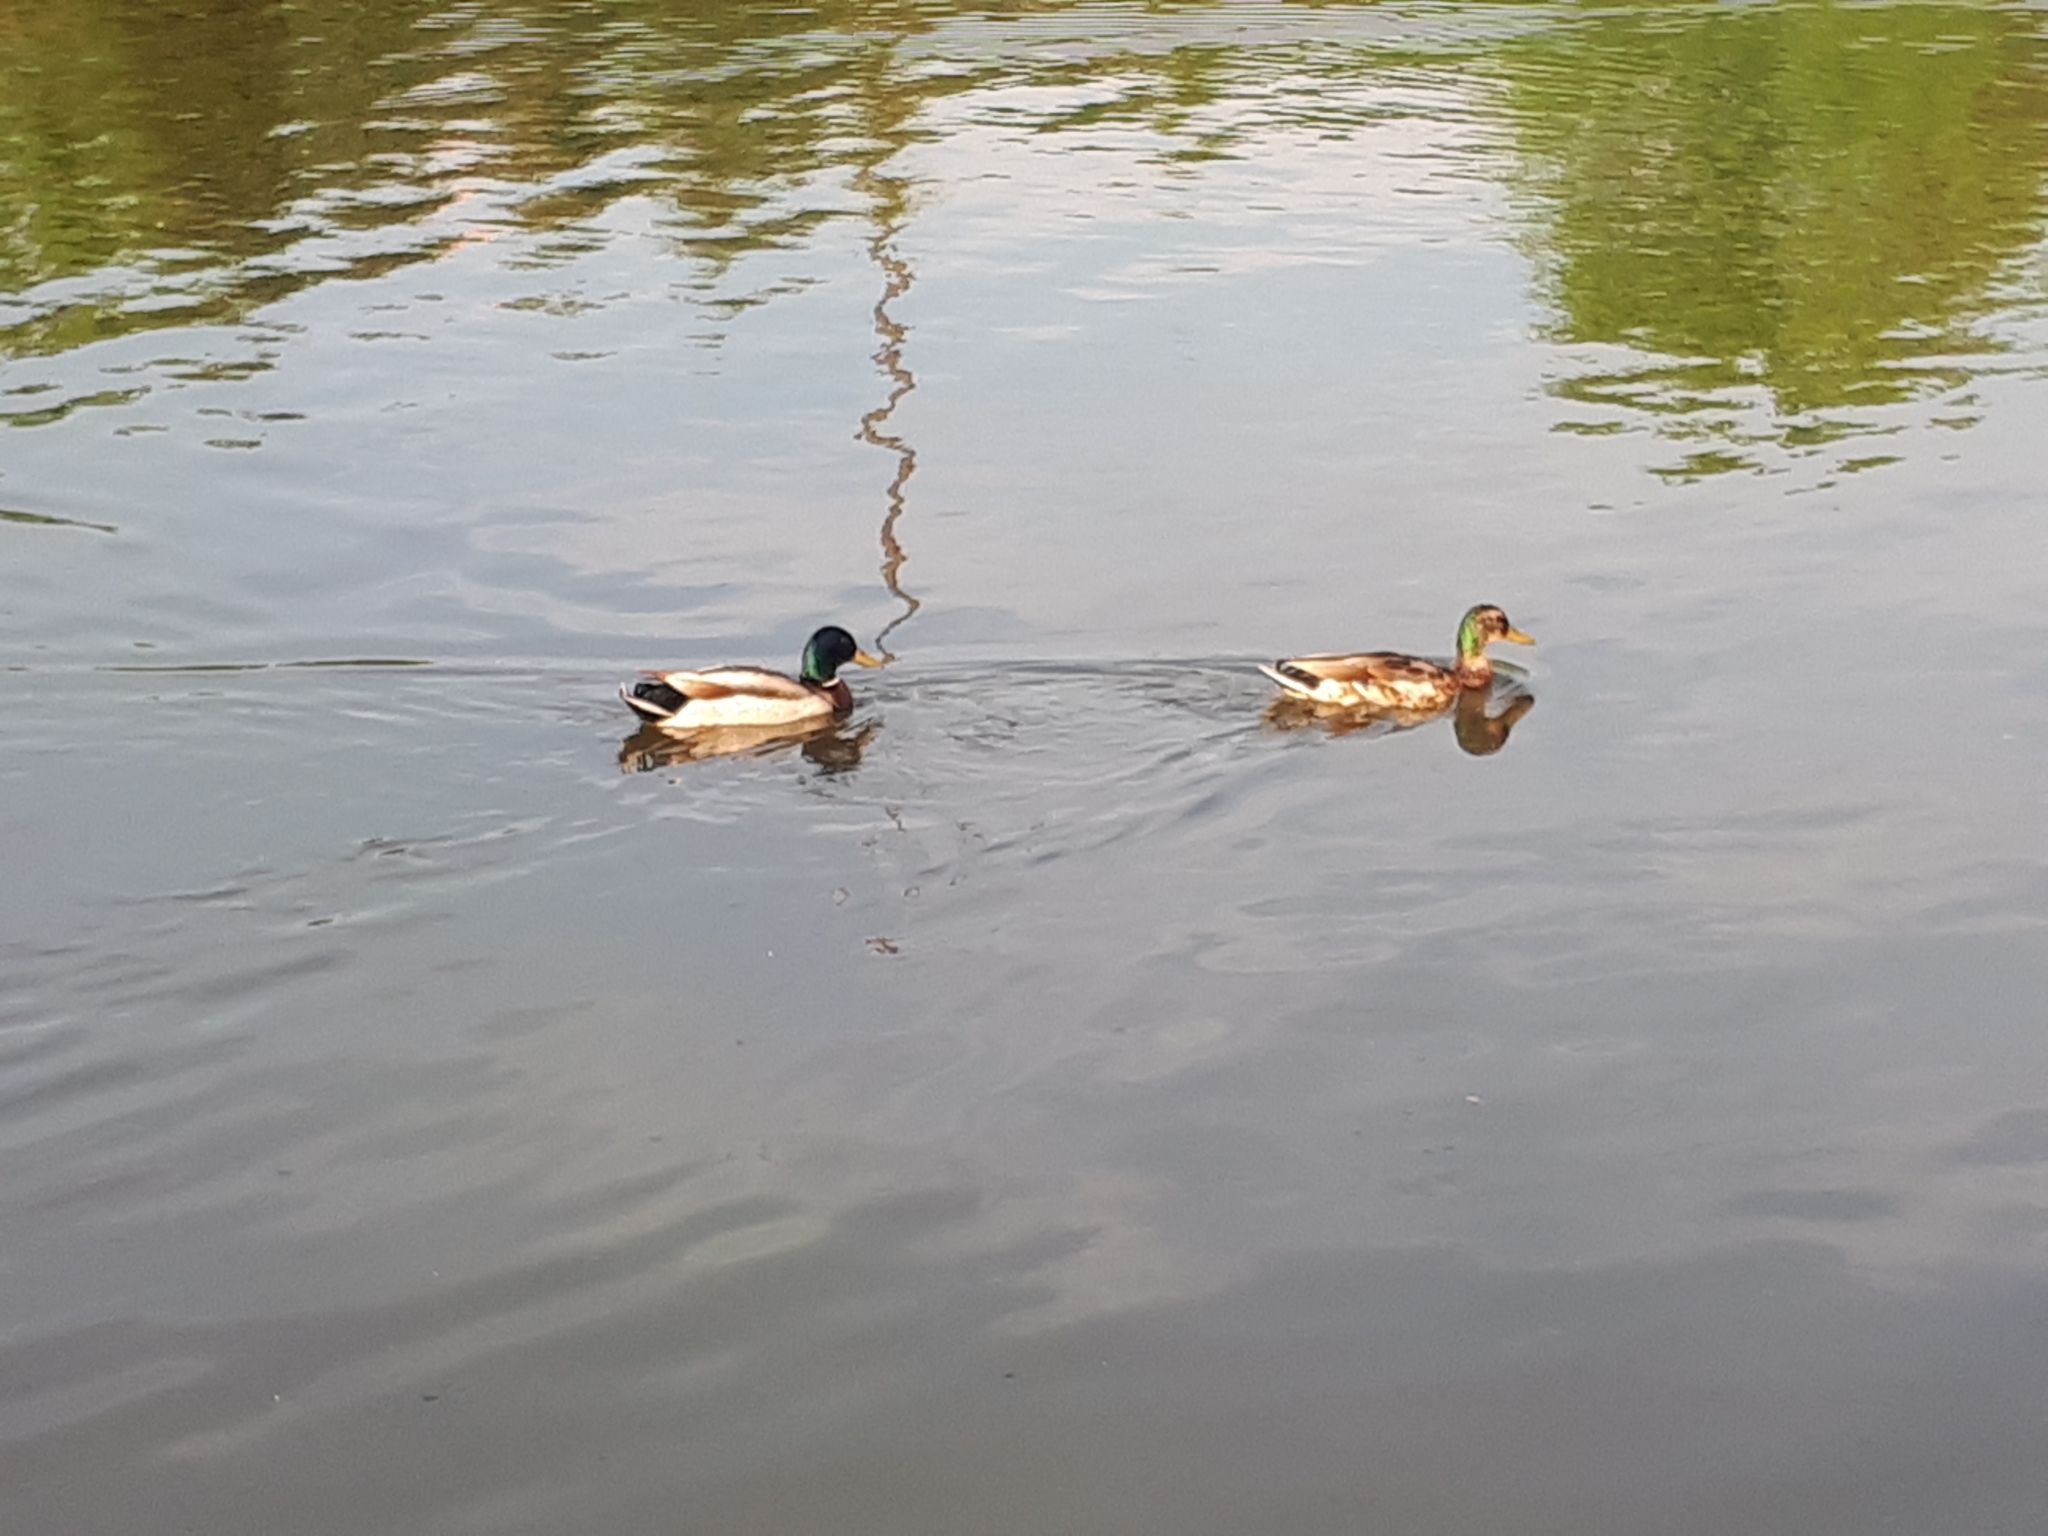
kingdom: Animalia
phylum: Chordata
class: Aves
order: Anseriformes
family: Anatidae
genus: Anas
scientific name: Anas platyrhynchos
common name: Mallard
